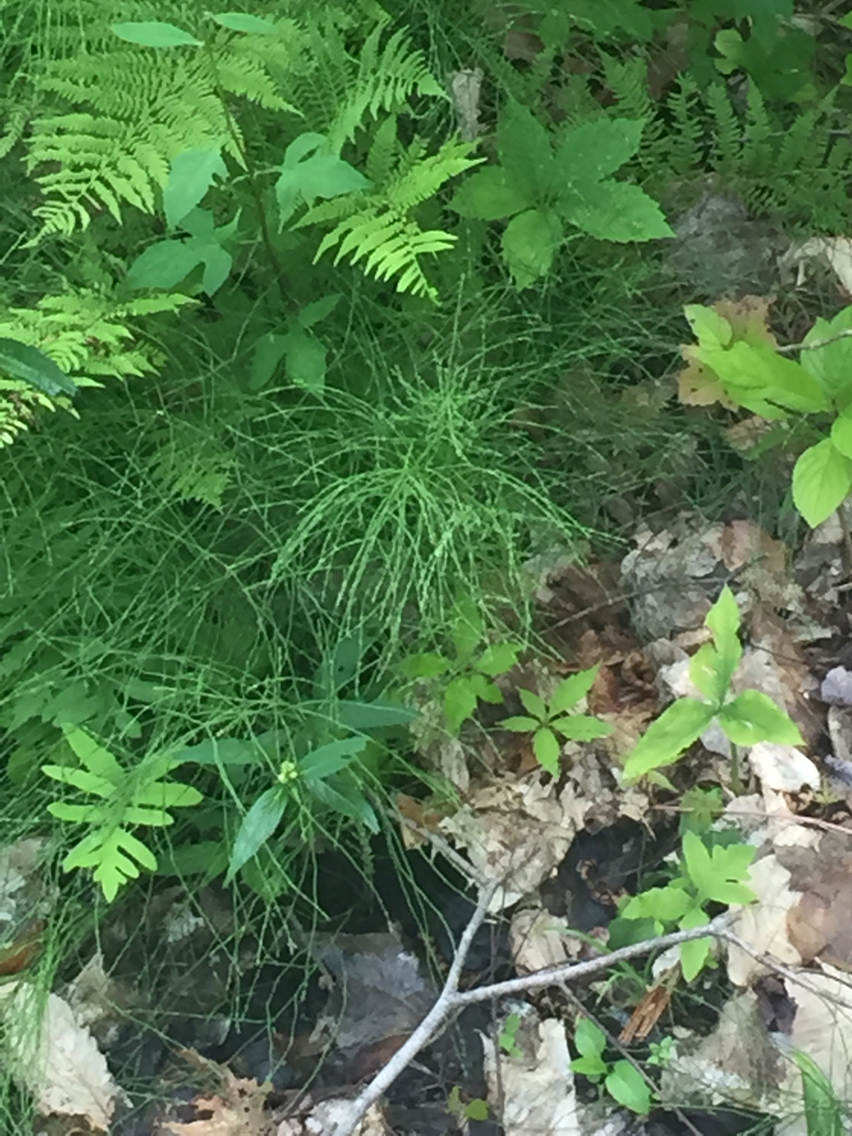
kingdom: Plantae
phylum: Tracheophyta
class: Polypodiopsida
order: Equisetales
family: Equisetaceae
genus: Equisetum
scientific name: Equisetum arvense
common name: Field horsetail
